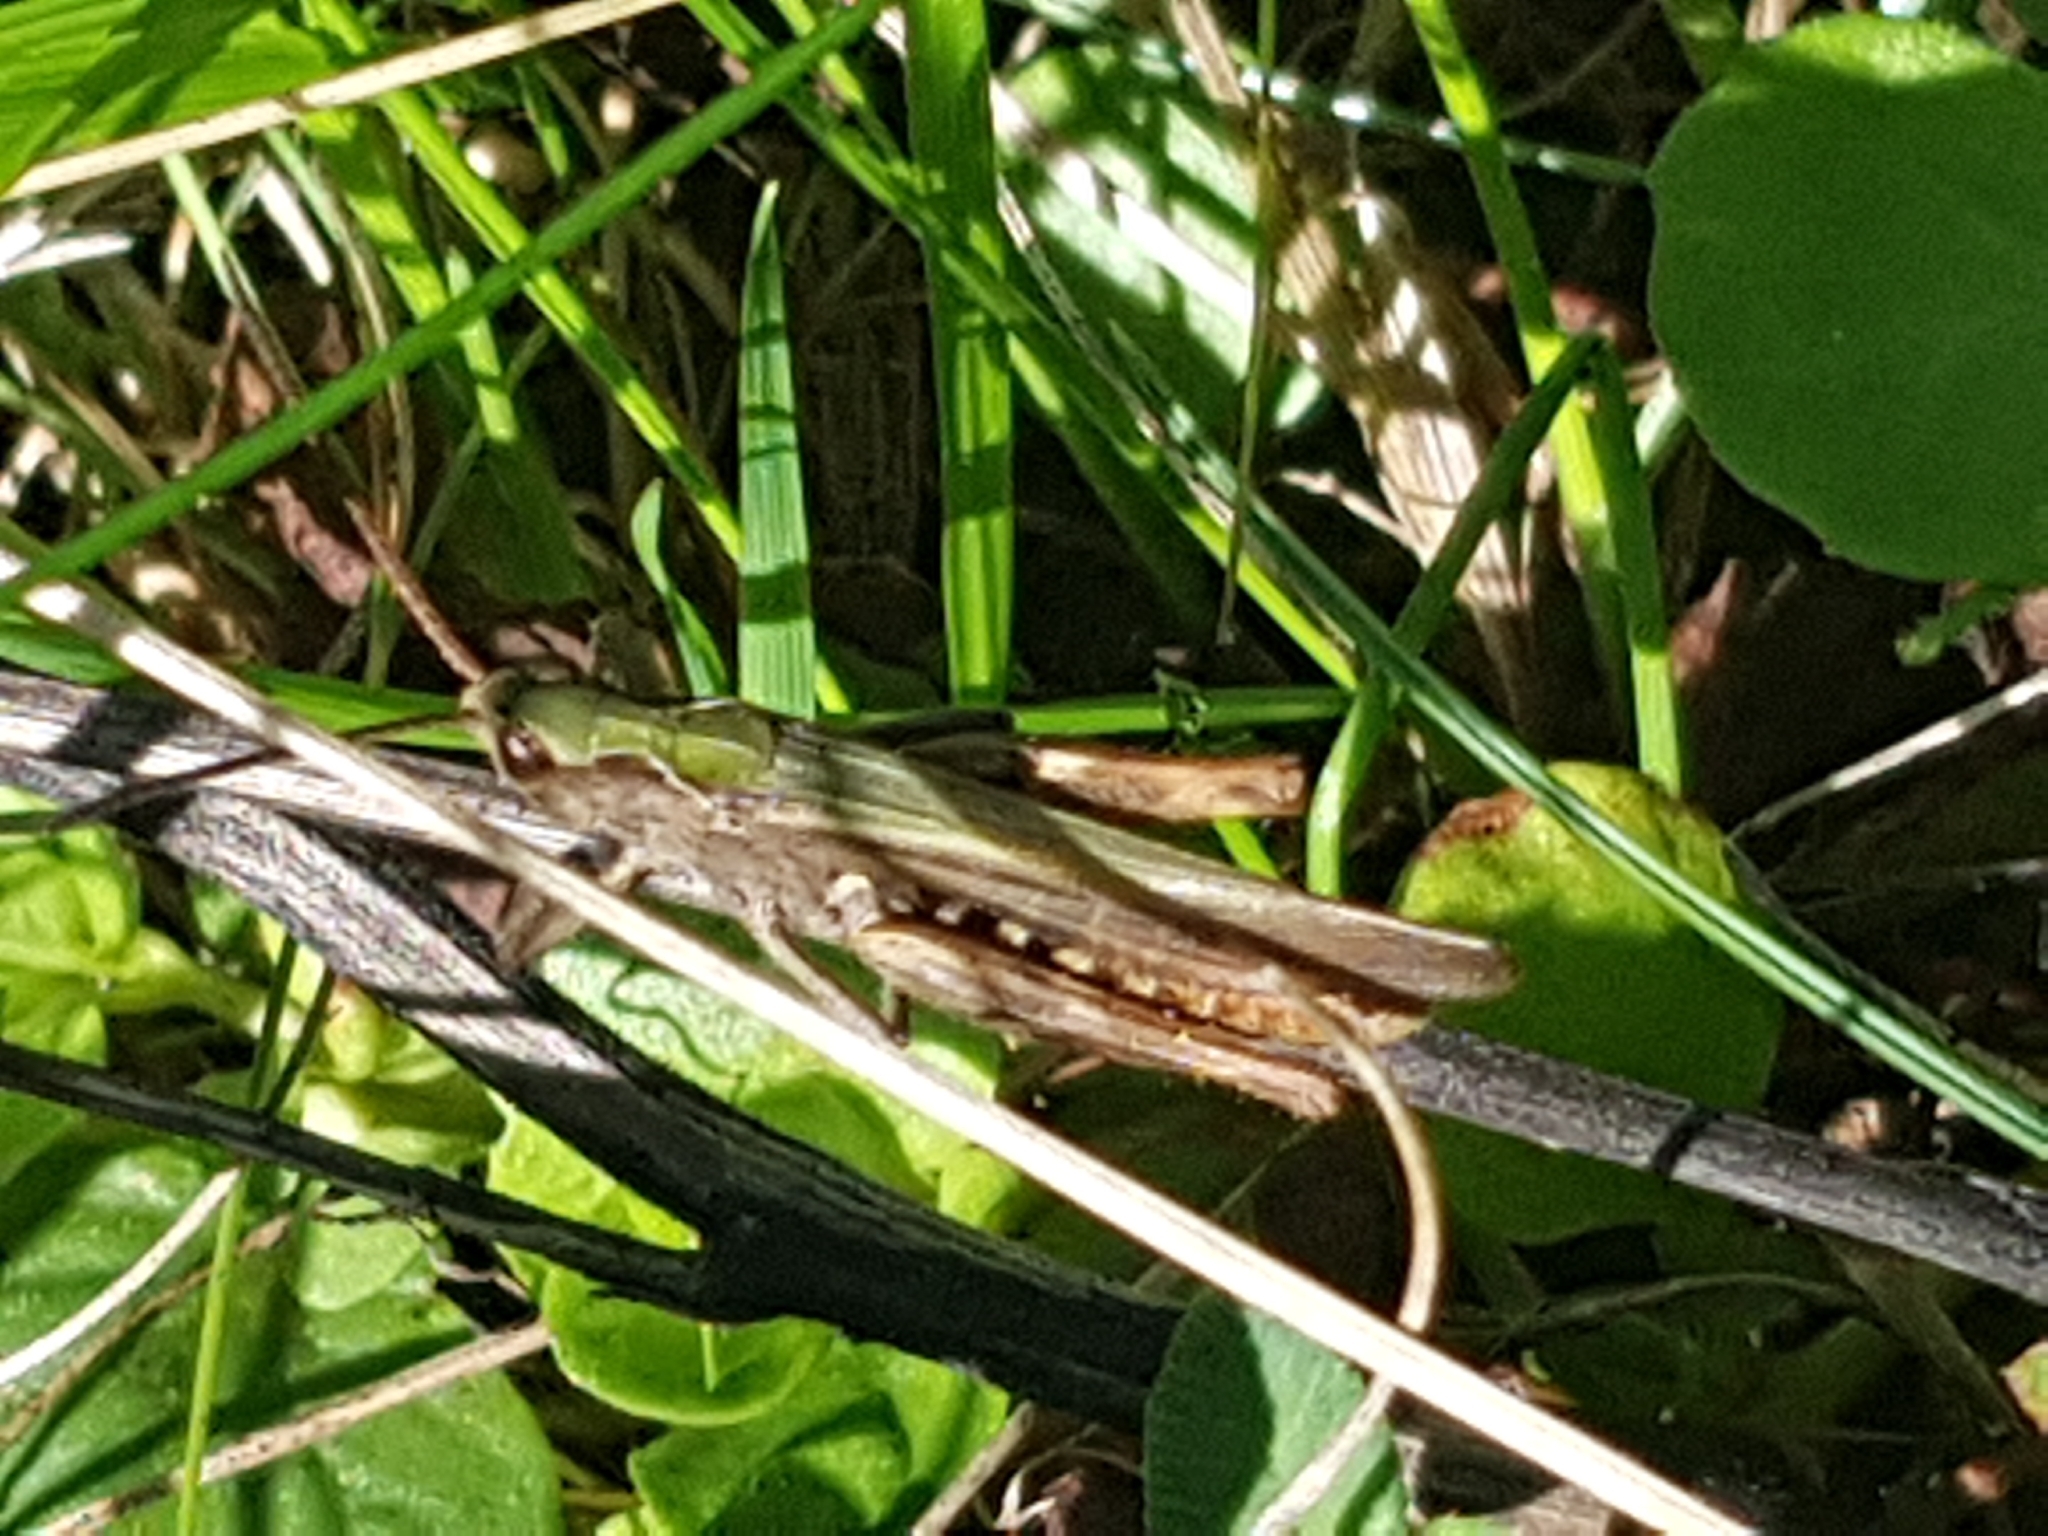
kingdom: Animalia
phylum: Arthropoda
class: Insecta
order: Orthoptera
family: Acrididae
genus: Chorthippus
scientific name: Chorthippus brunneus
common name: Field grasshopper
